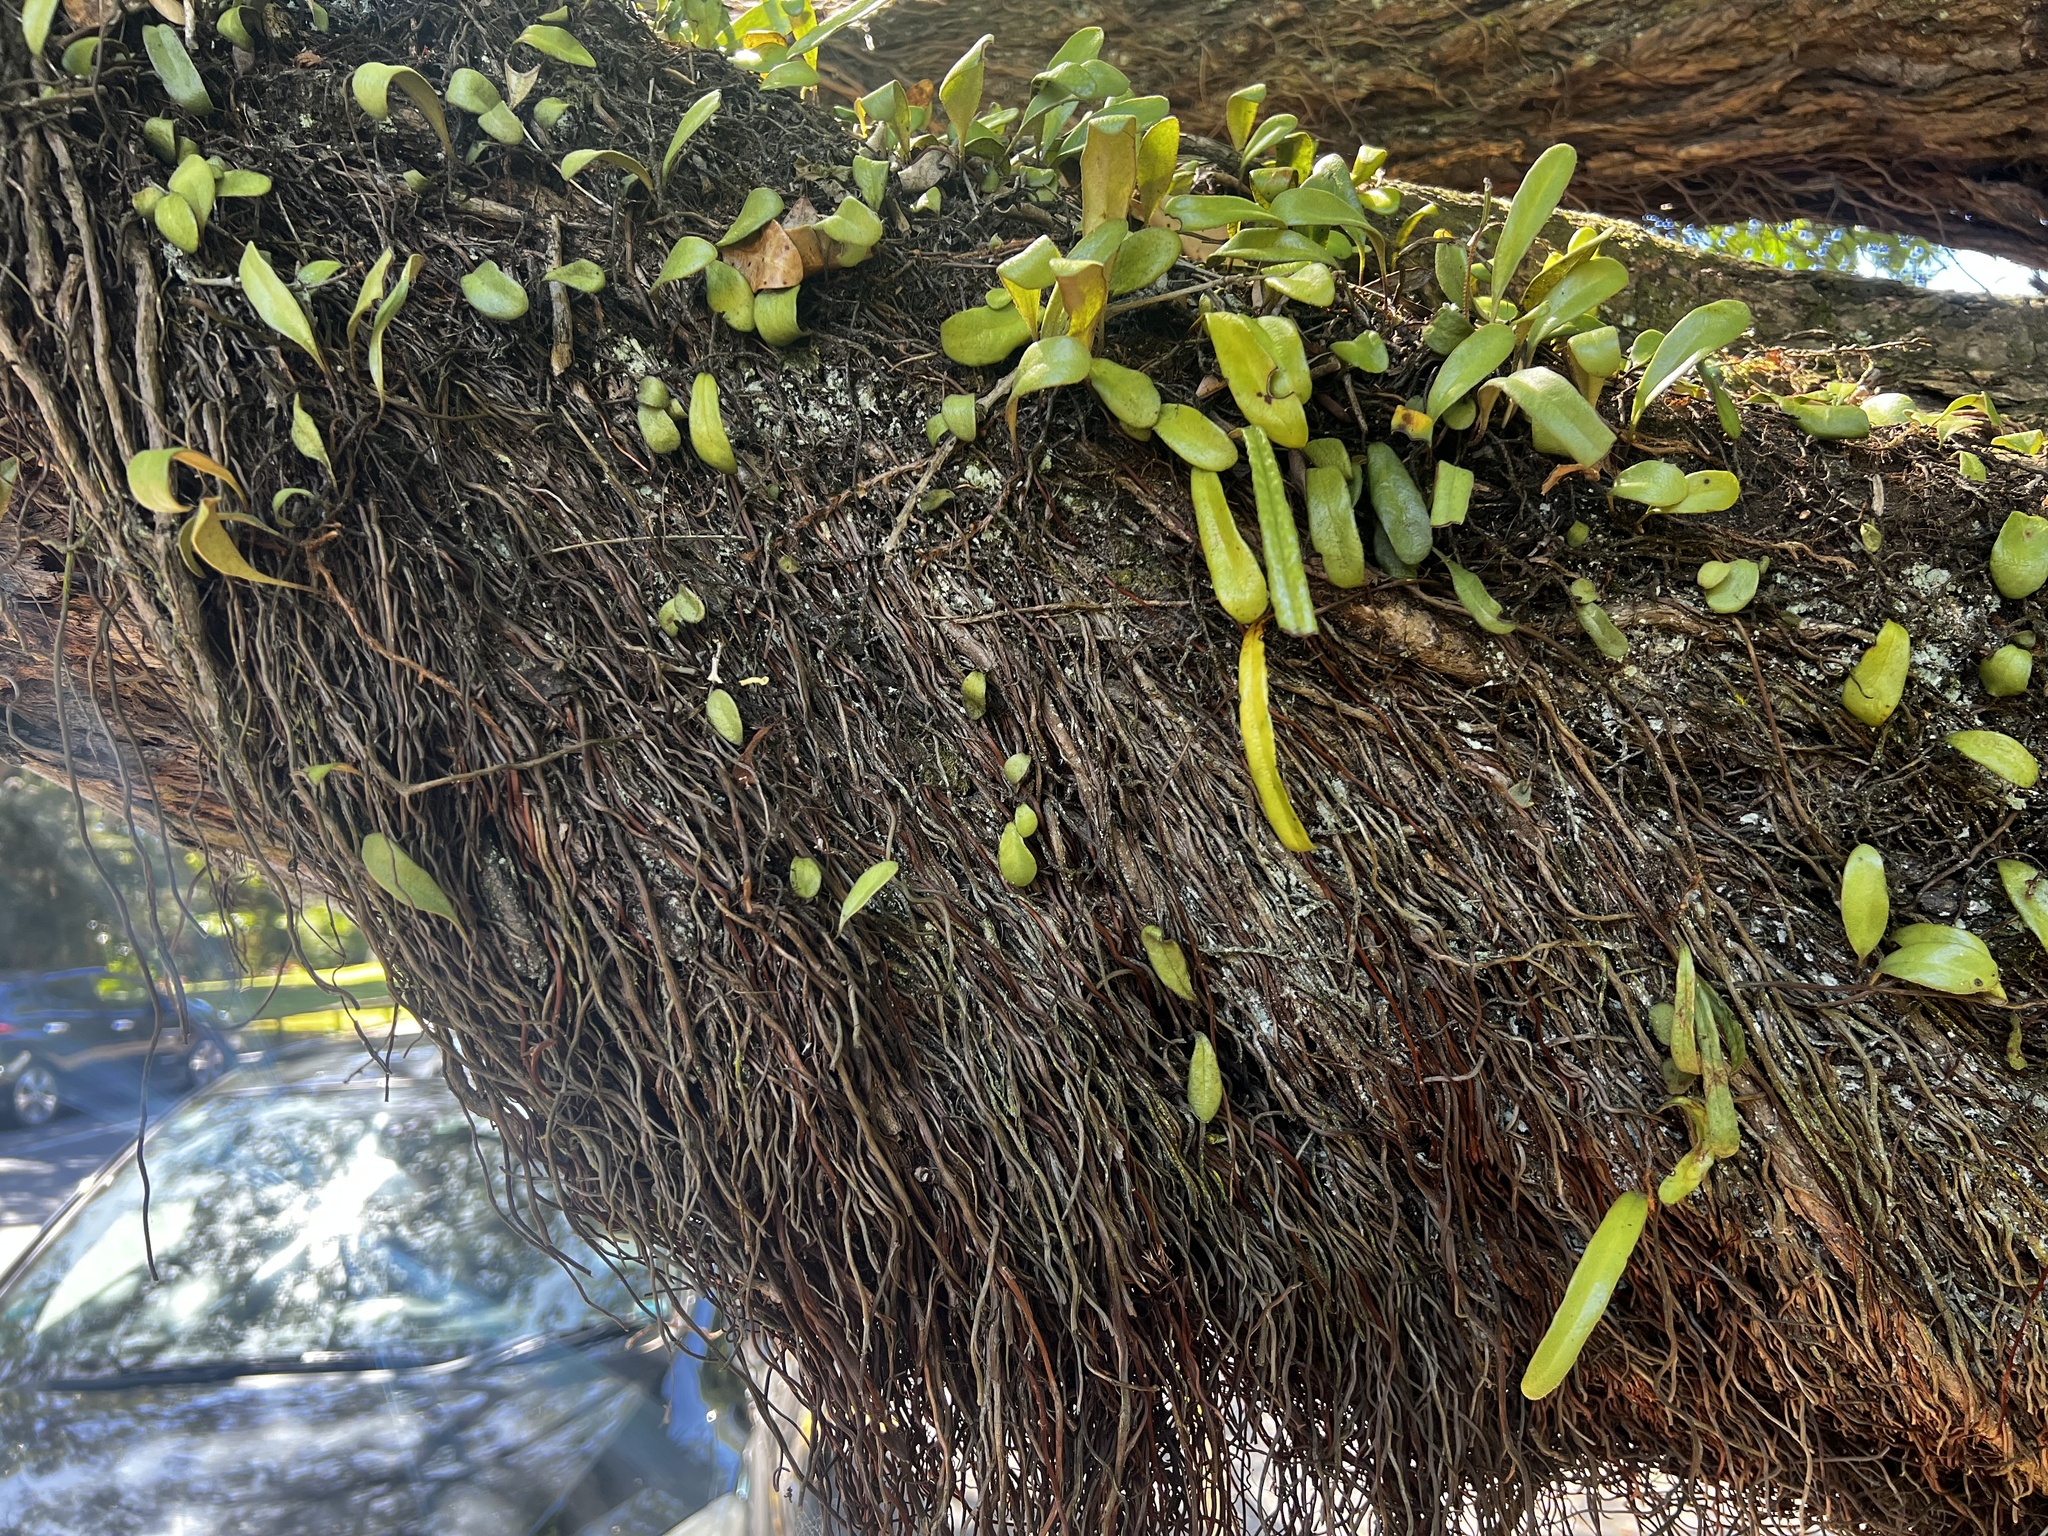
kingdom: Plantae
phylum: Tracheophyta
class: Polypodiopsida
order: Polypodiales
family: Polypodiaceae
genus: Pyrrosia
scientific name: Pyrrosia eleagnifolia
